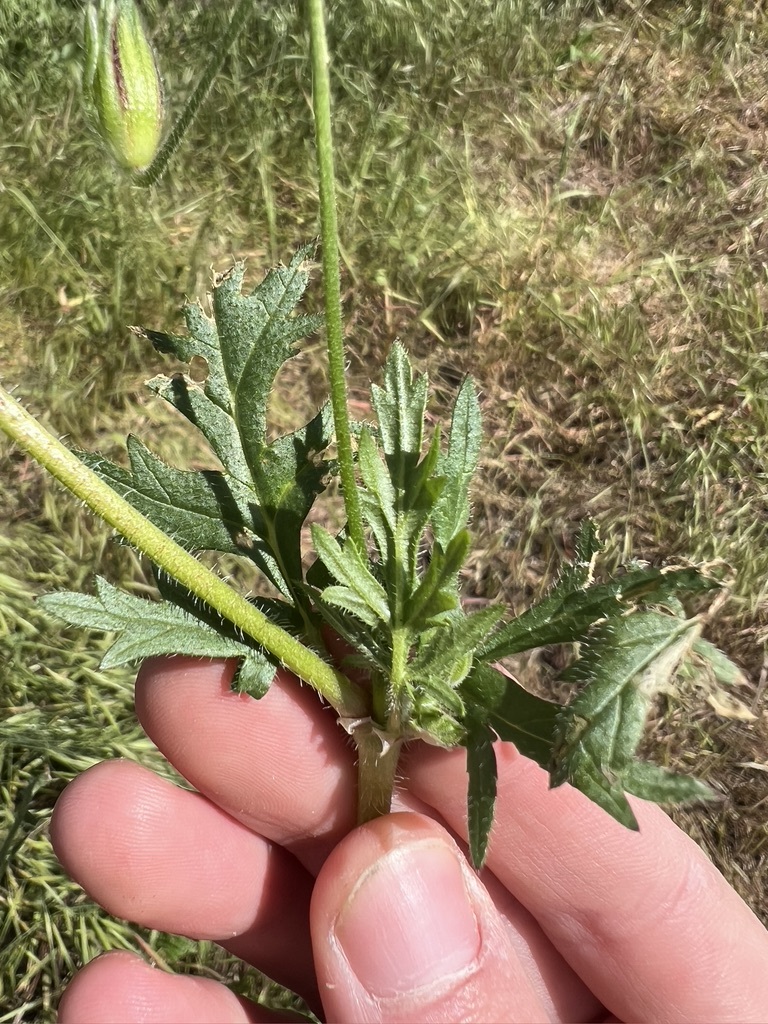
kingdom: Plantae
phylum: Tracheophyta
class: Magnoliopsida
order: Geraniales
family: Geraniaceae
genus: Erodium
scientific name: Erodium botrys
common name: Mediterranean stork's-bill
